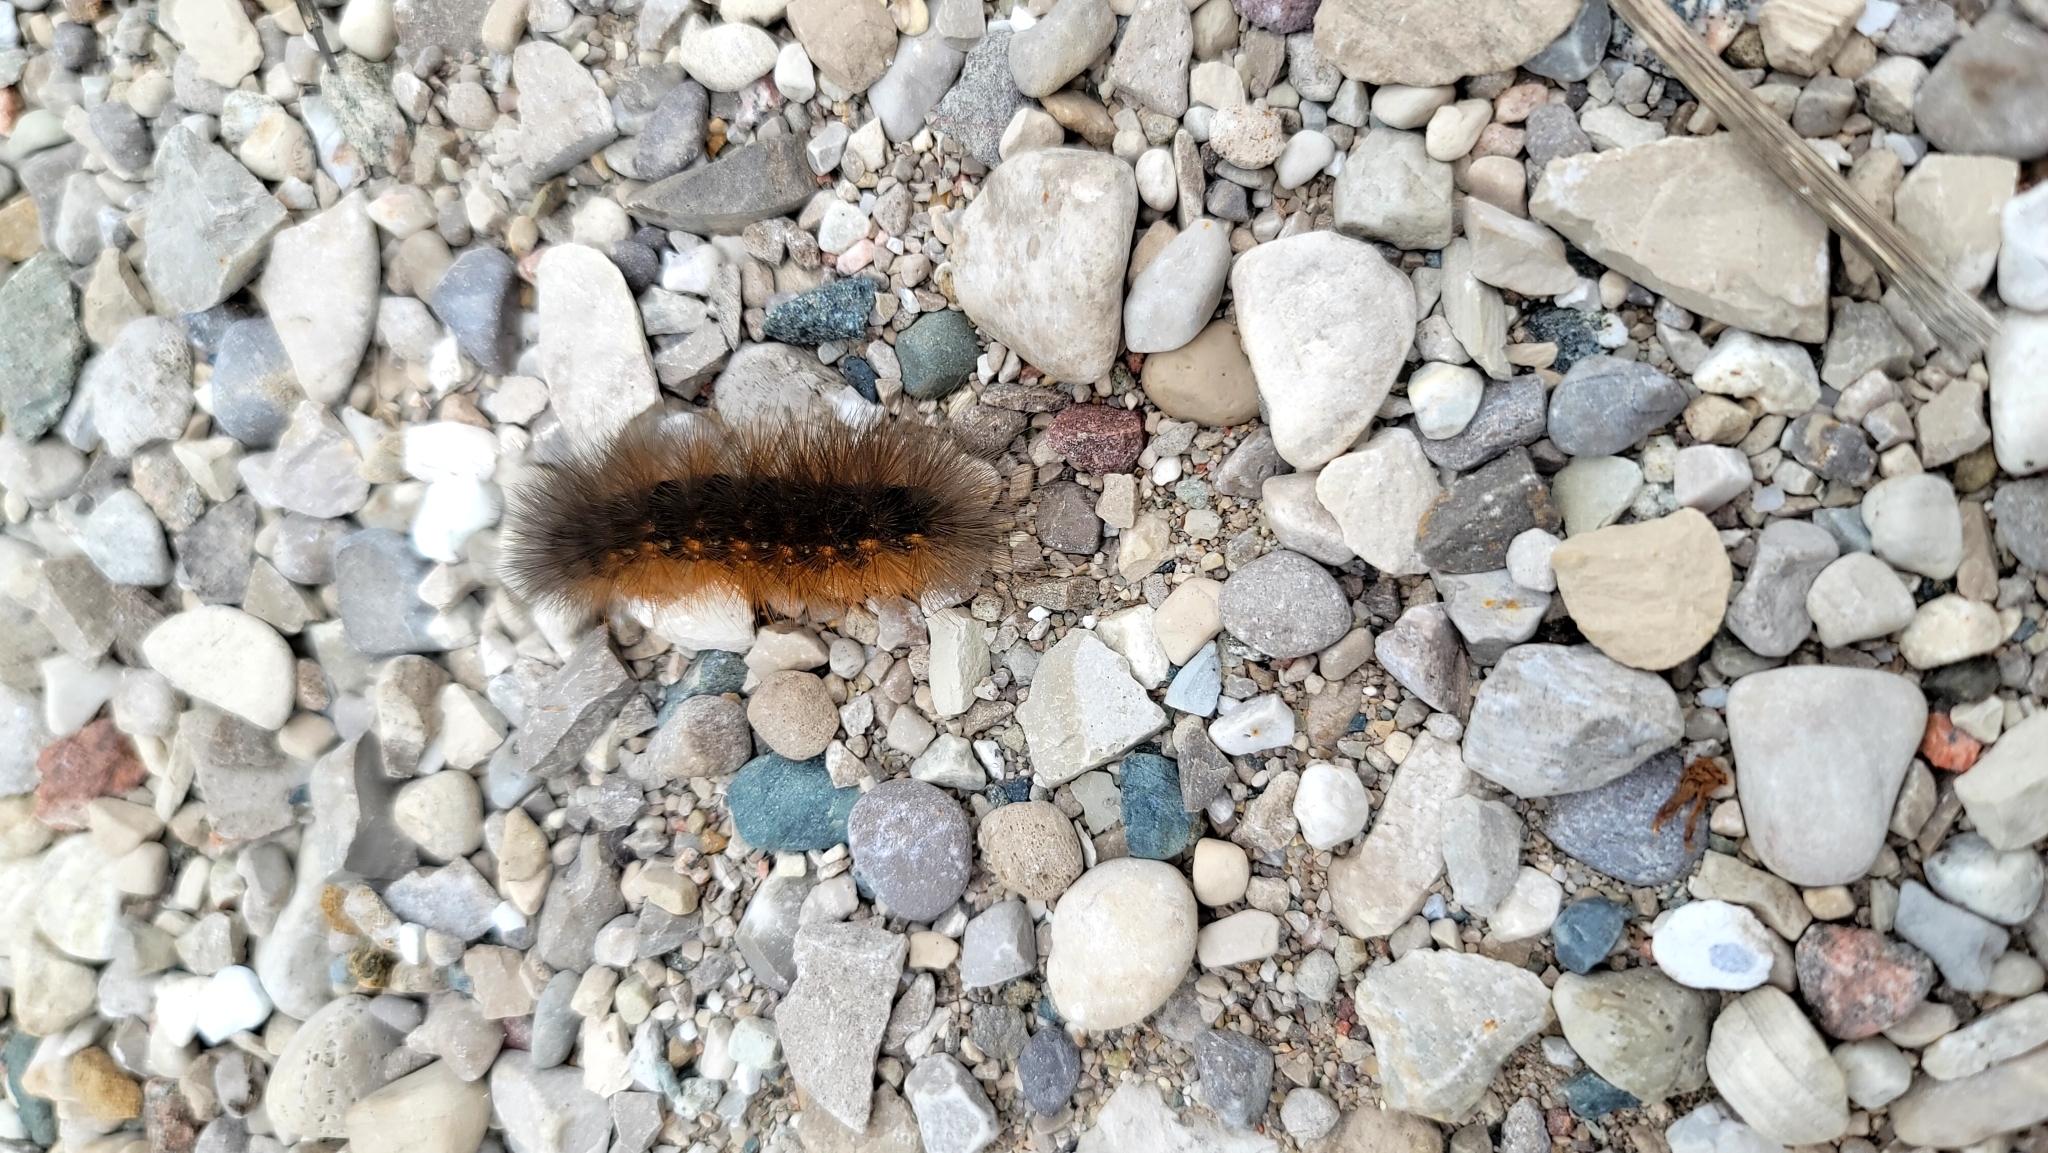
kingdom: Animalia
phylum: Arthropoda
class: Insecta
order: Lepidoptera
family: Erebidae
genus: Estigmene
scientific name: Estigmene acrea
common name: Salt marsh moth
